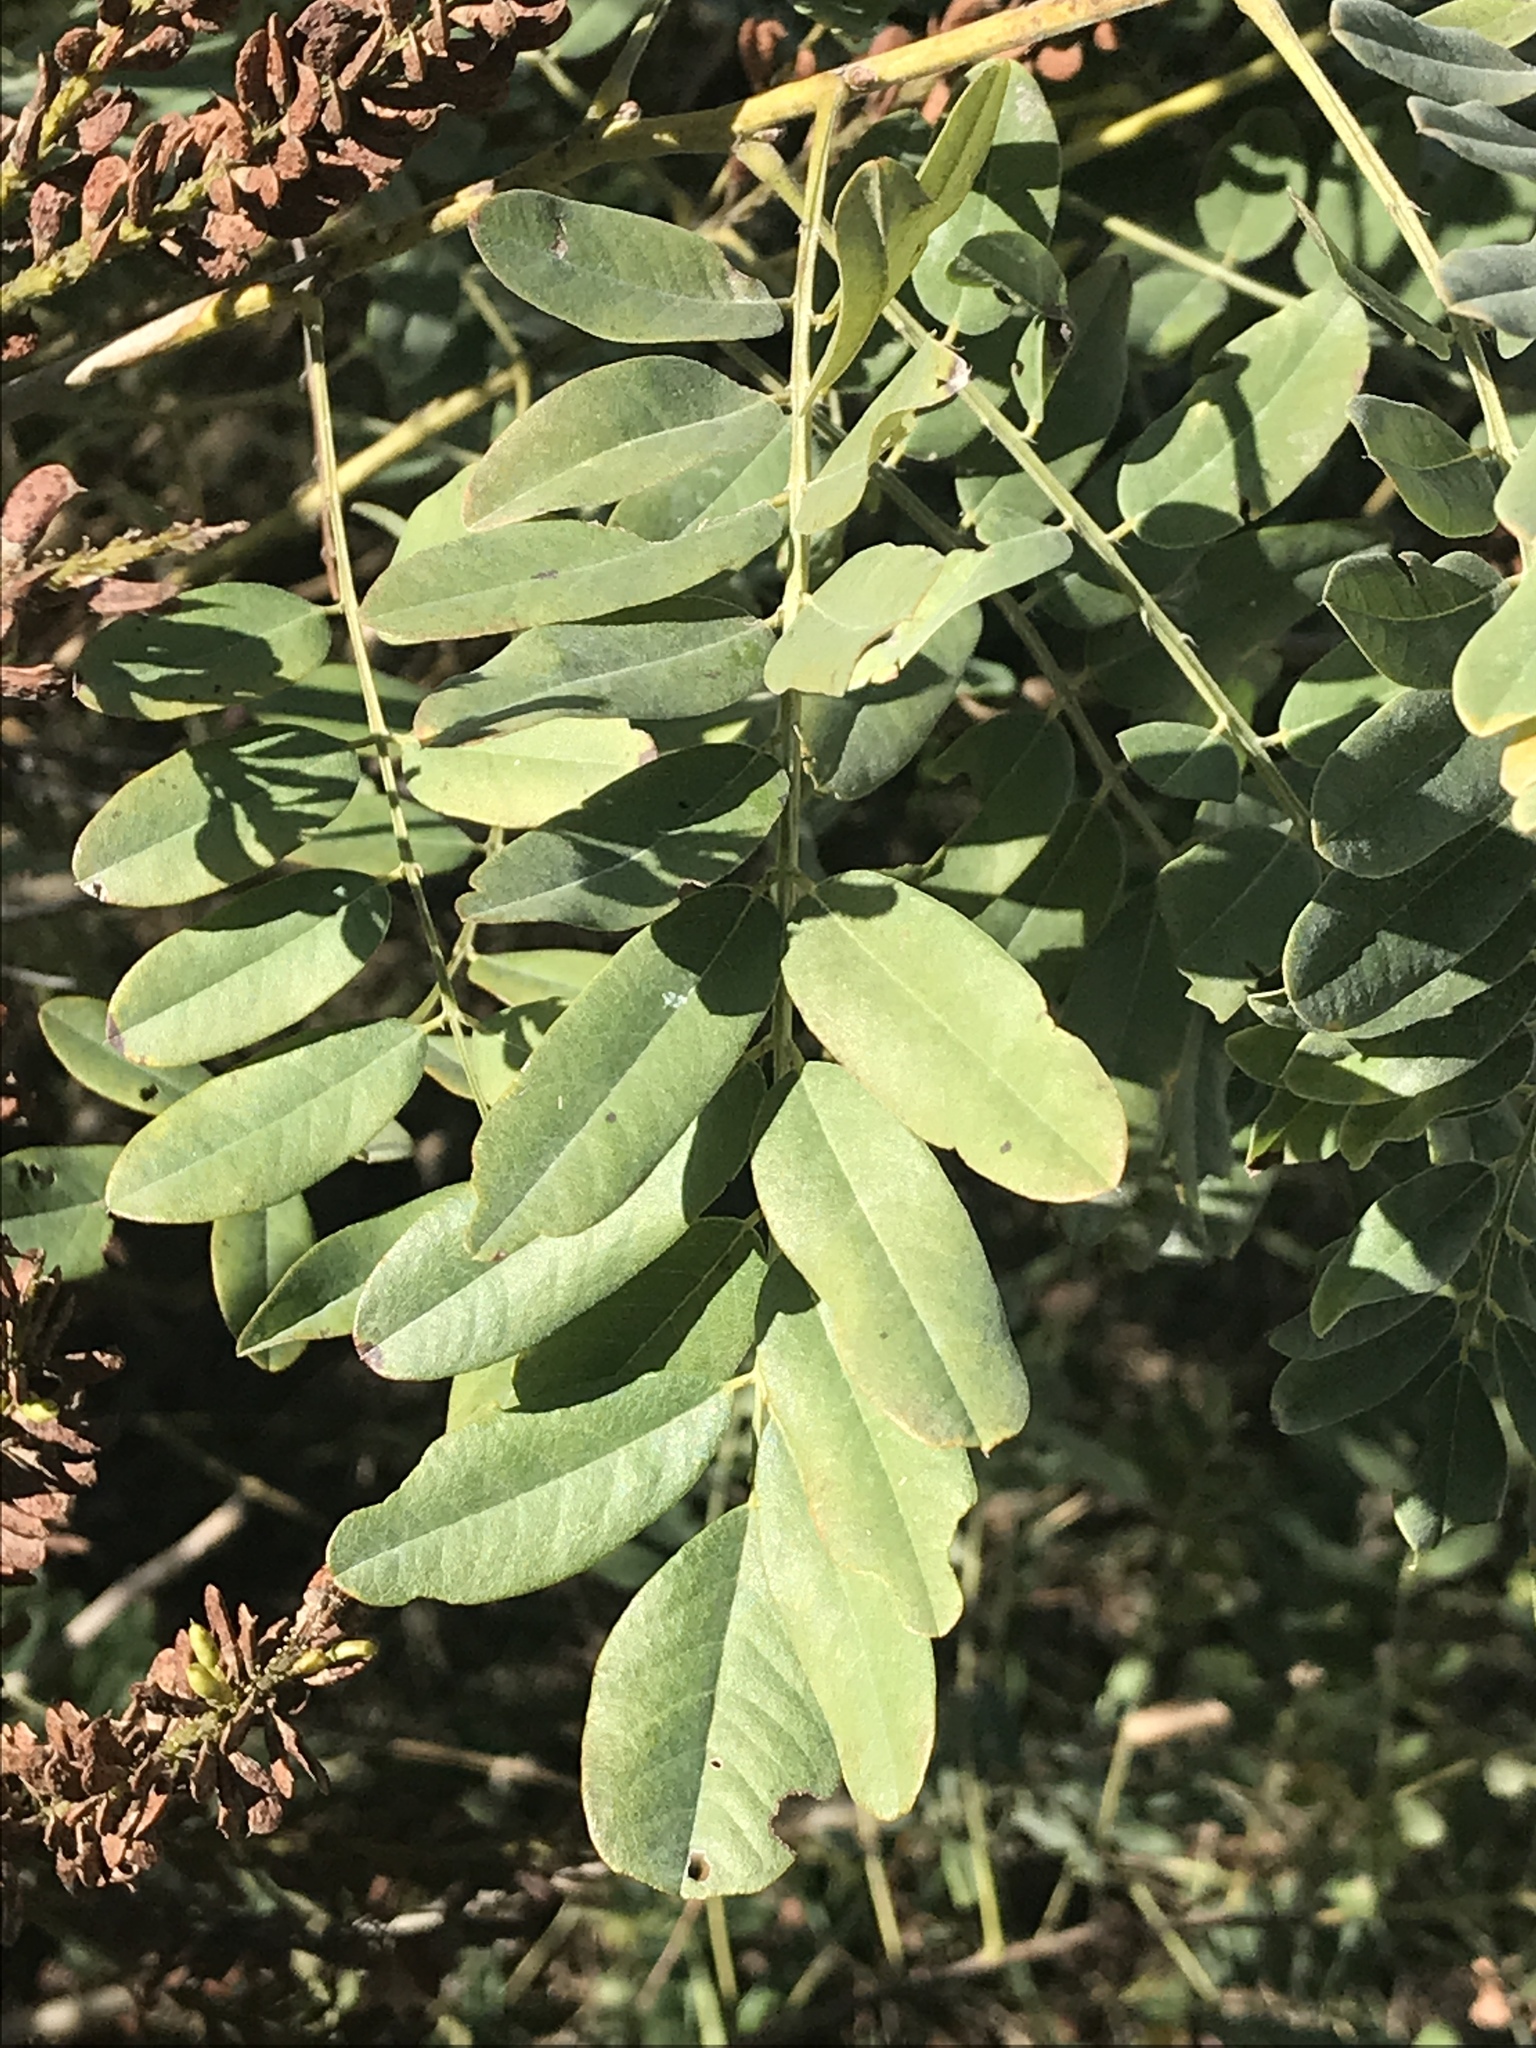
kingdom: Plantae
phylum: Tracheophyta
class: Magnoliopsida
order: Fabales
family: Fabaceae
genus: Amorpha
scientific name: Amorpha fruticosa
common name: False indigo
